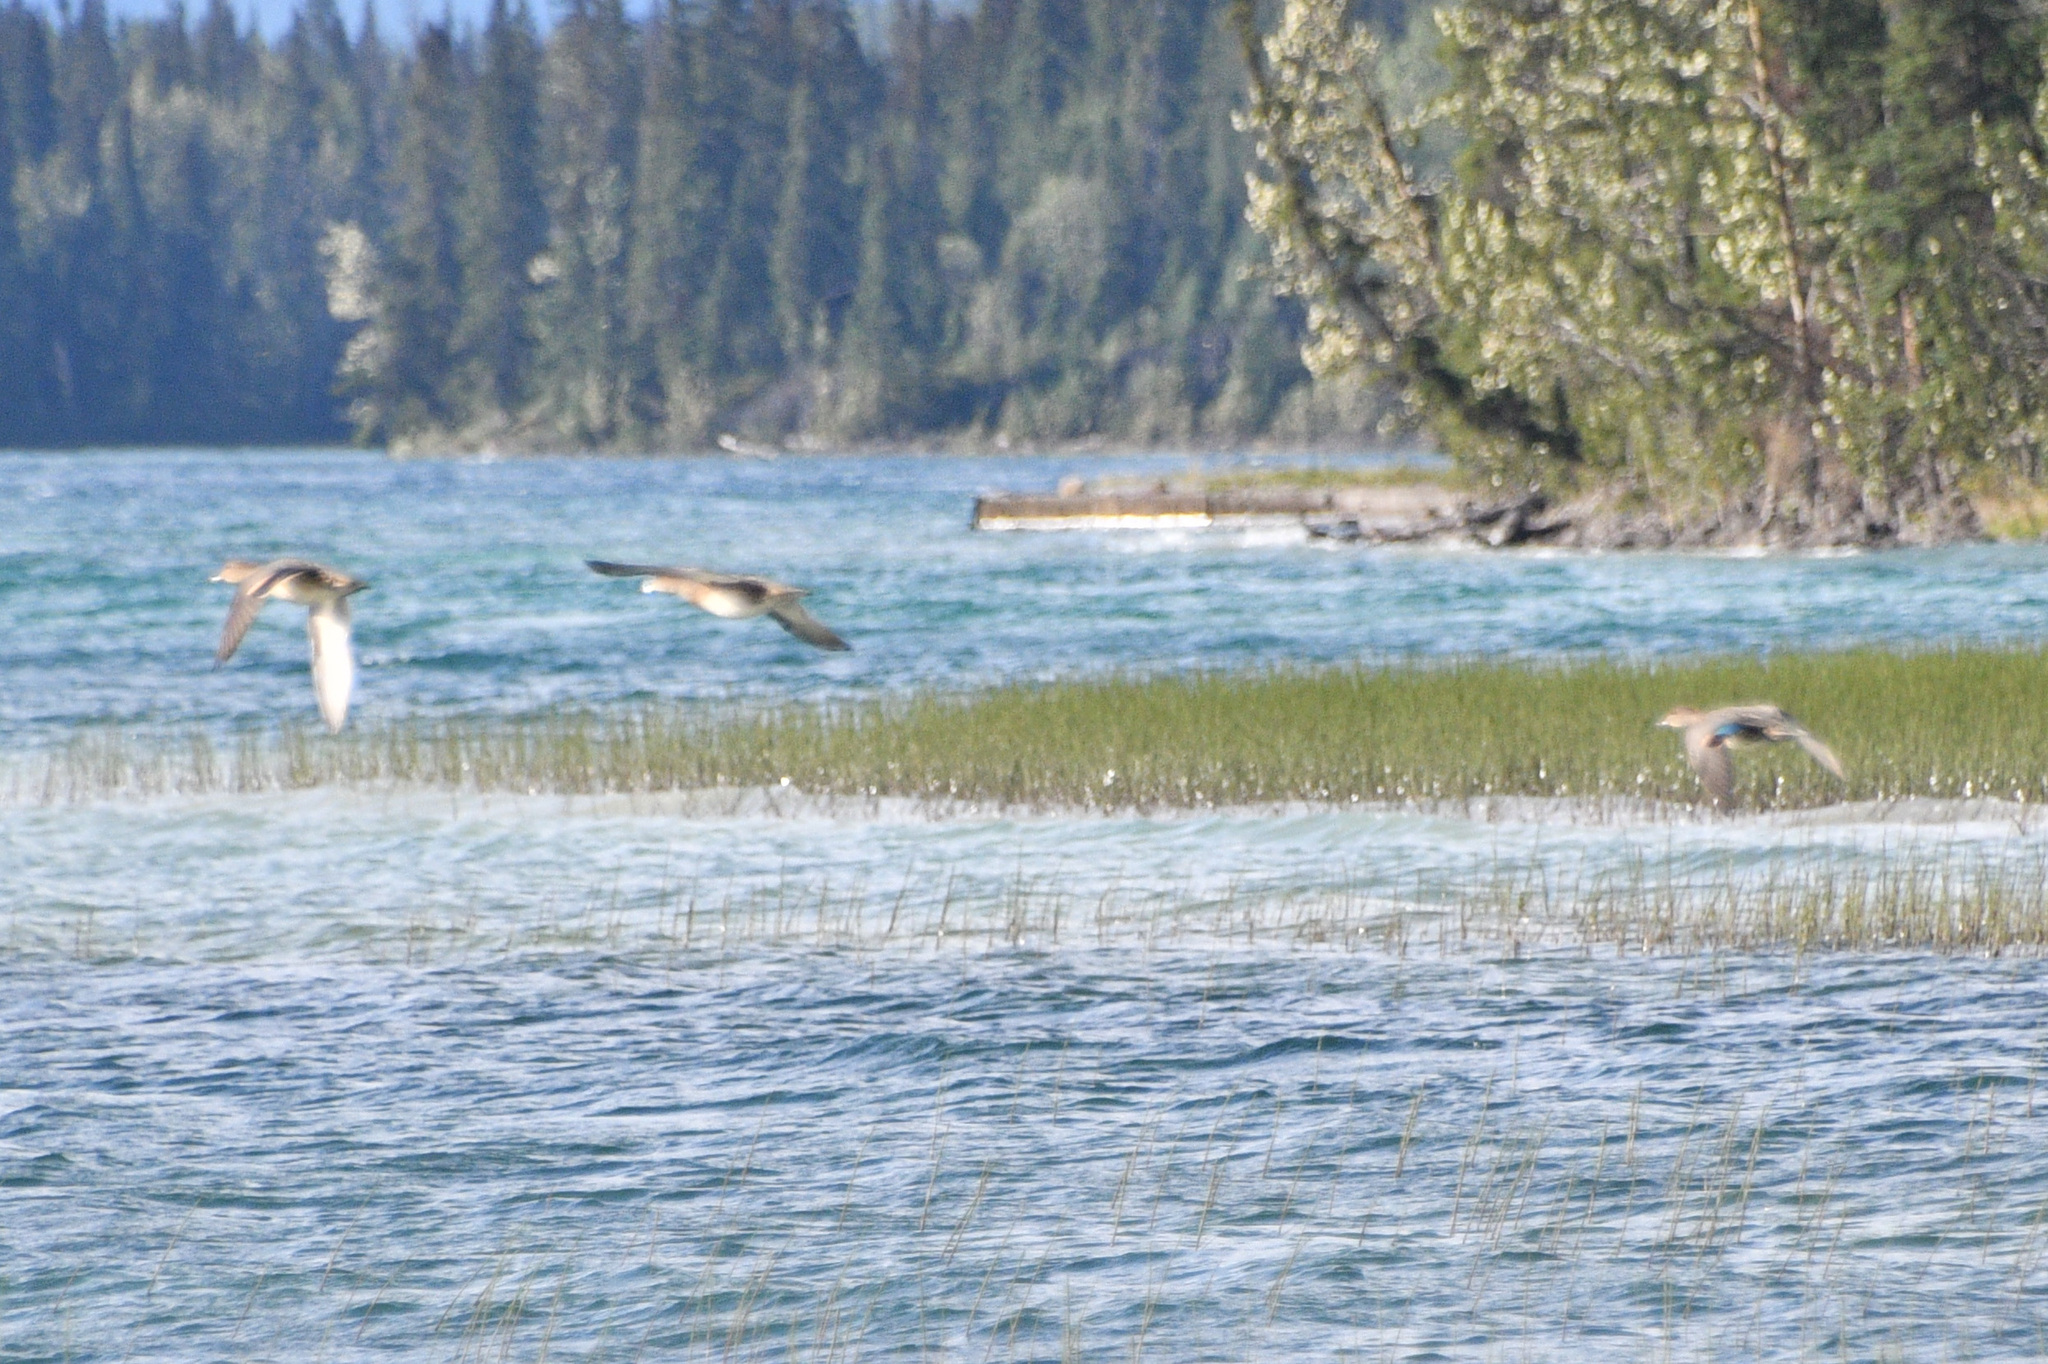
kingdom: Animalia
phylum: Chordata
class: Aves
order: Anseriformes
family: Anatidae
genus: Anas
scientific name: Anas crecca
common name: Eurasian teal
